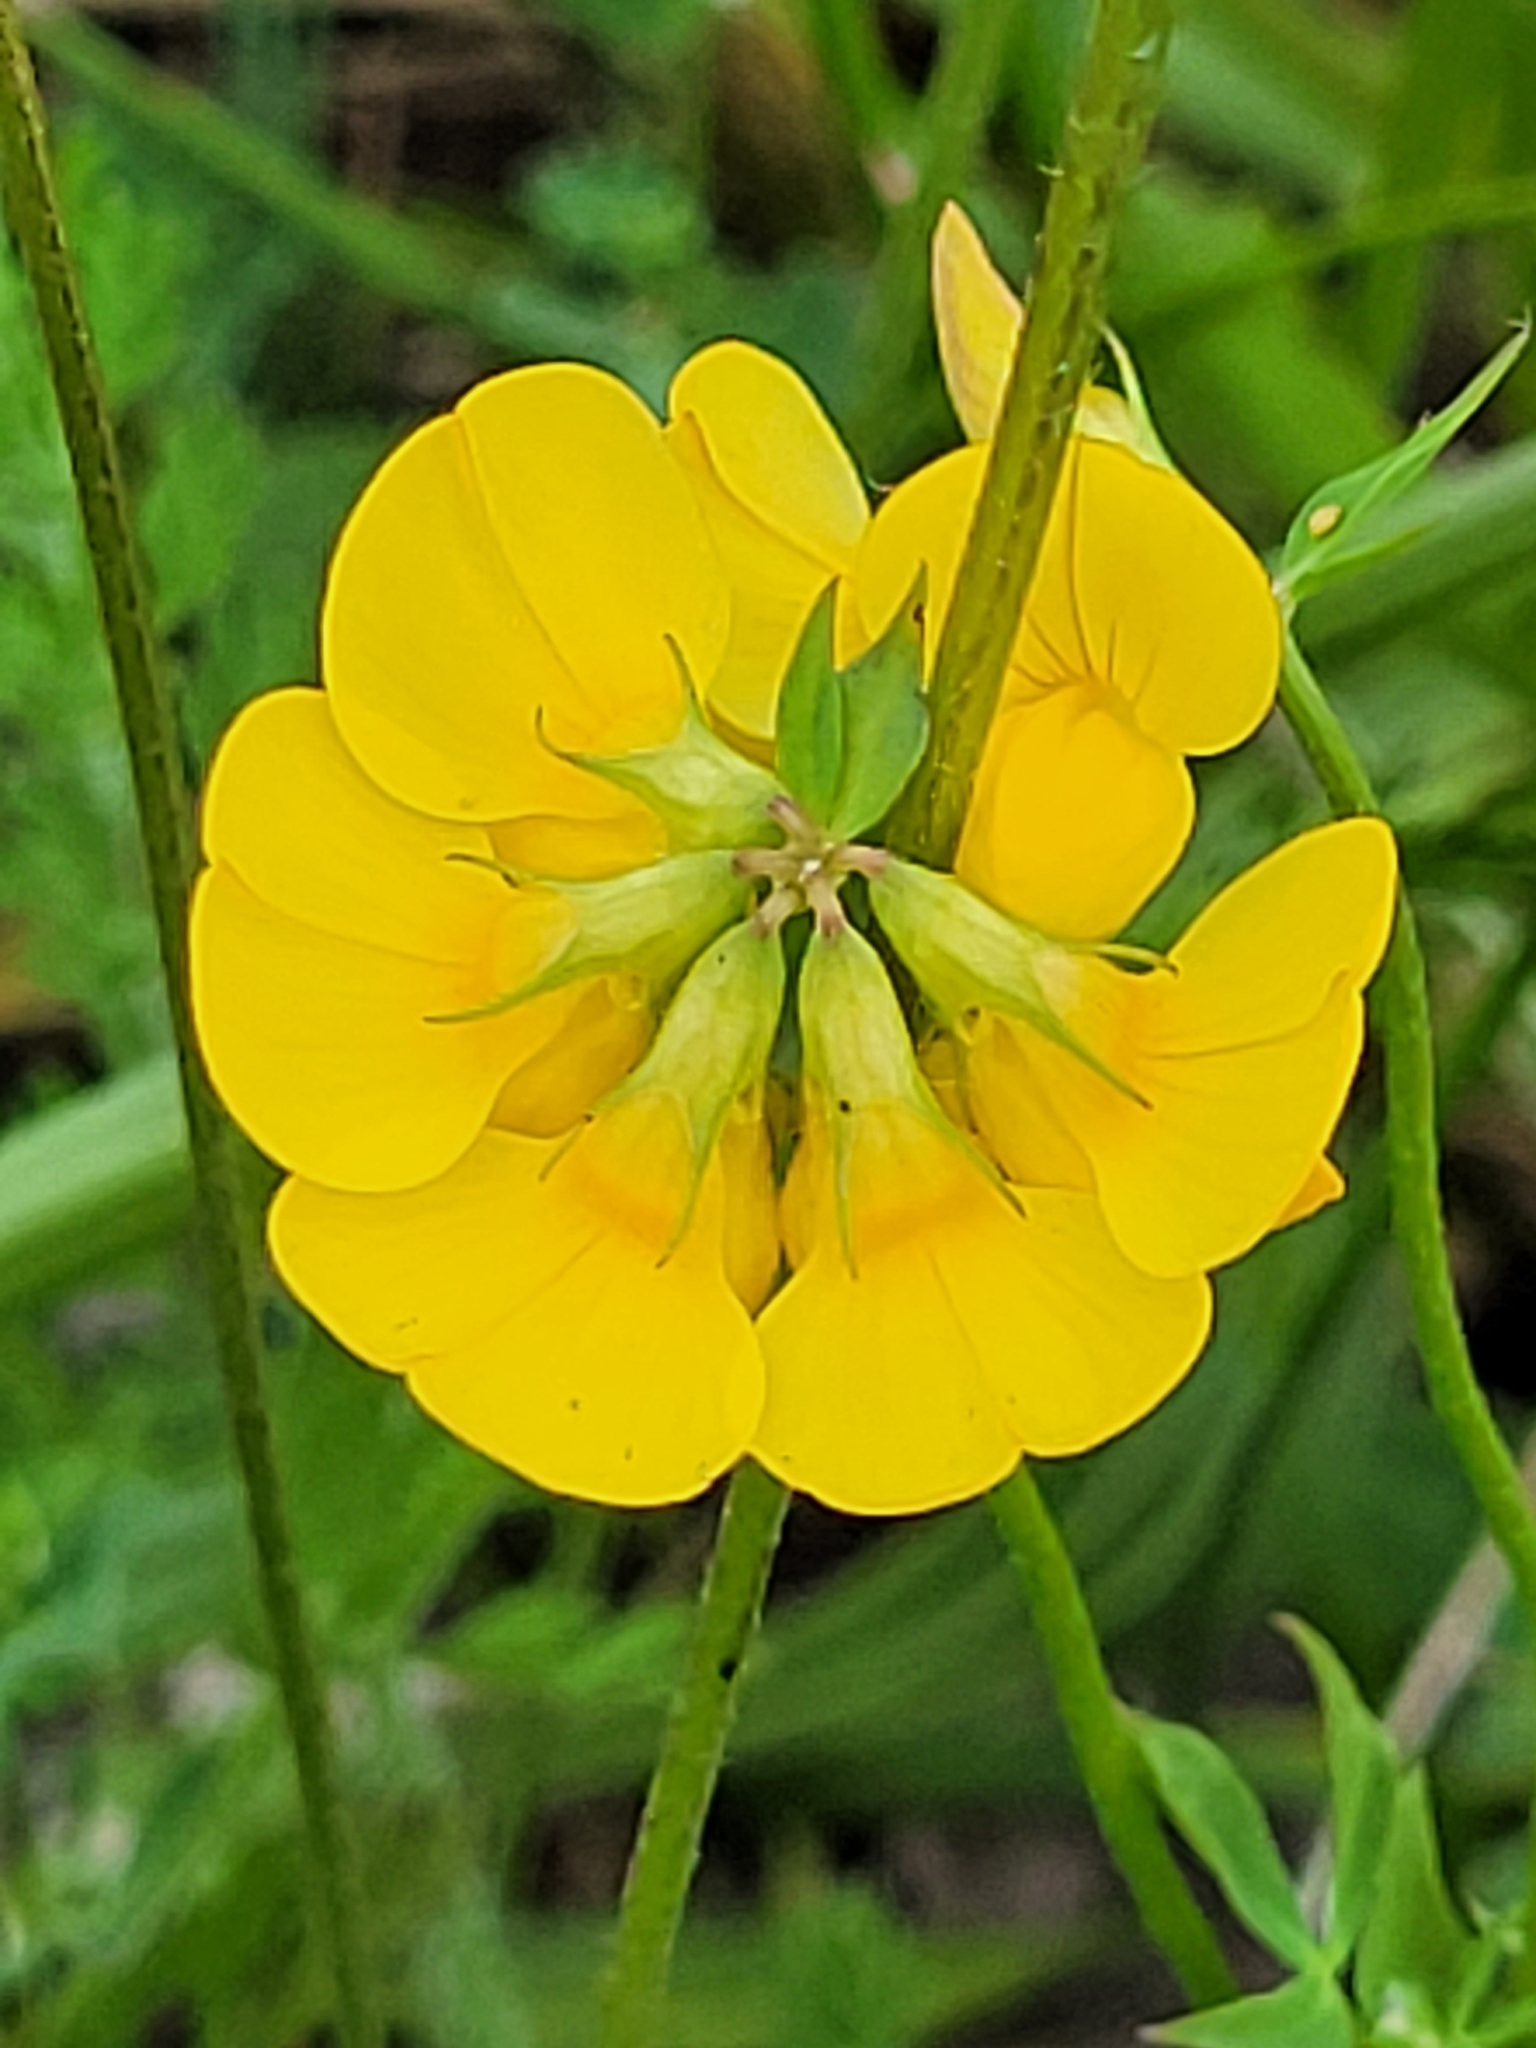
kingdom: Plantae
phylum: Tracheophyta
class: Magnoliopsida
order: Fabales
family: Fabaceae
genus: Lotus
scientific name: Lotus corniculatus
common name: Common bird's-foot-trefoil
